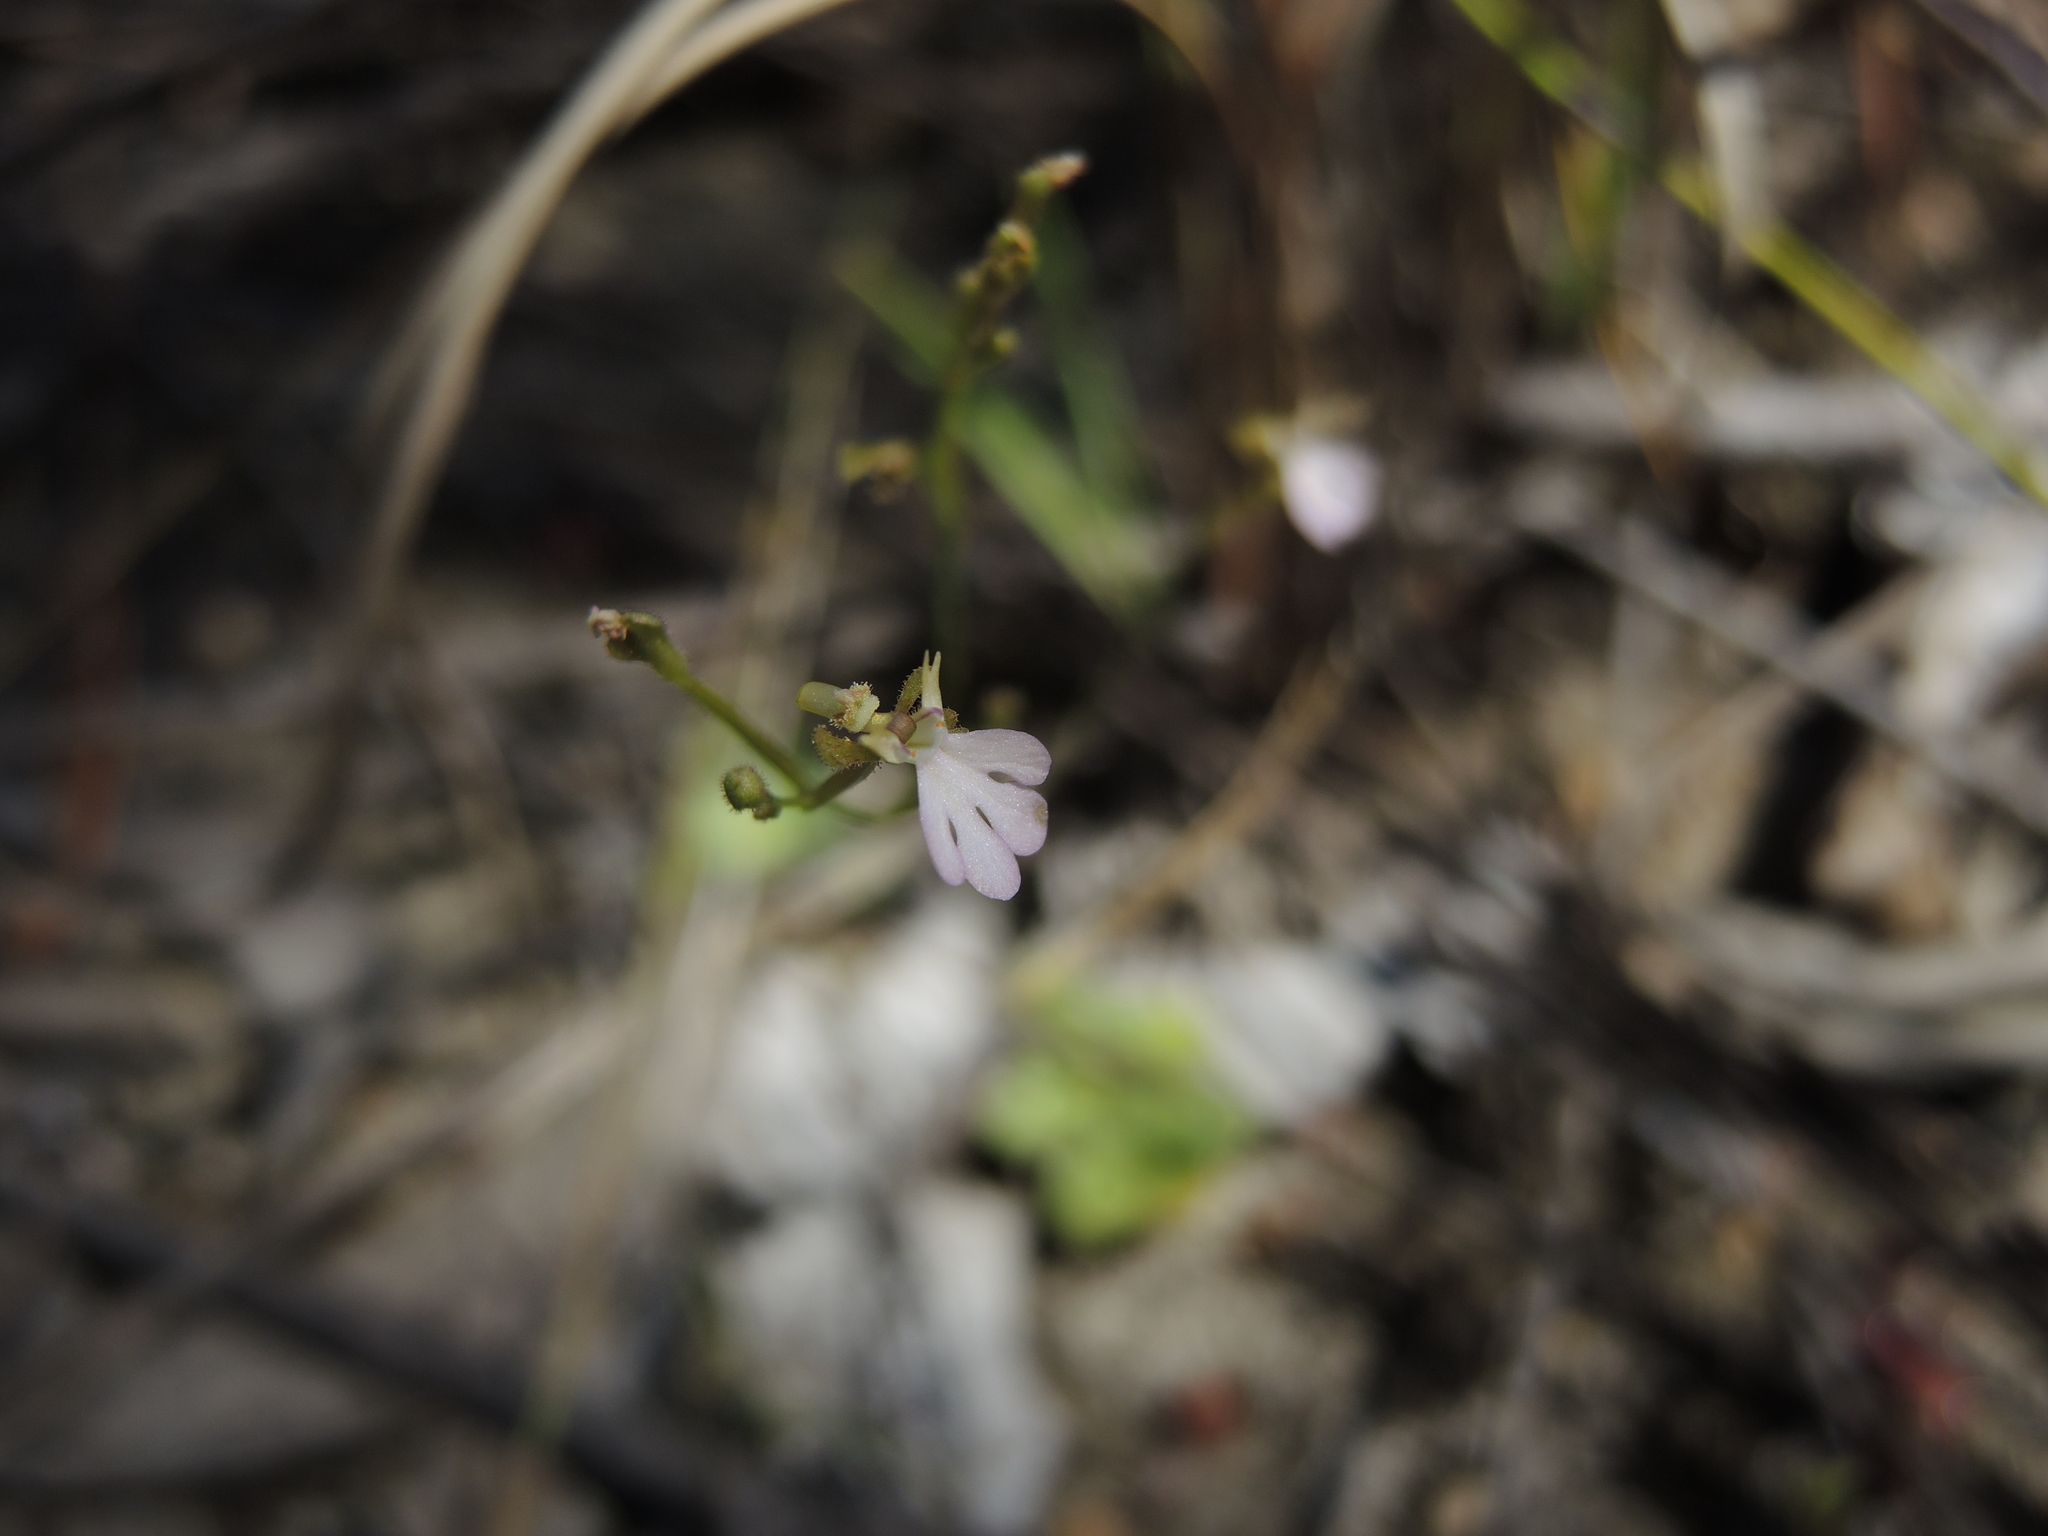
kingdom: Plantae
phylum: Tracheophyta
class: Magnoliopsida
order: Asterales
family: Stylidiaceae
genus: Stylidium
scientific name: Stylidium pachyrhizum
